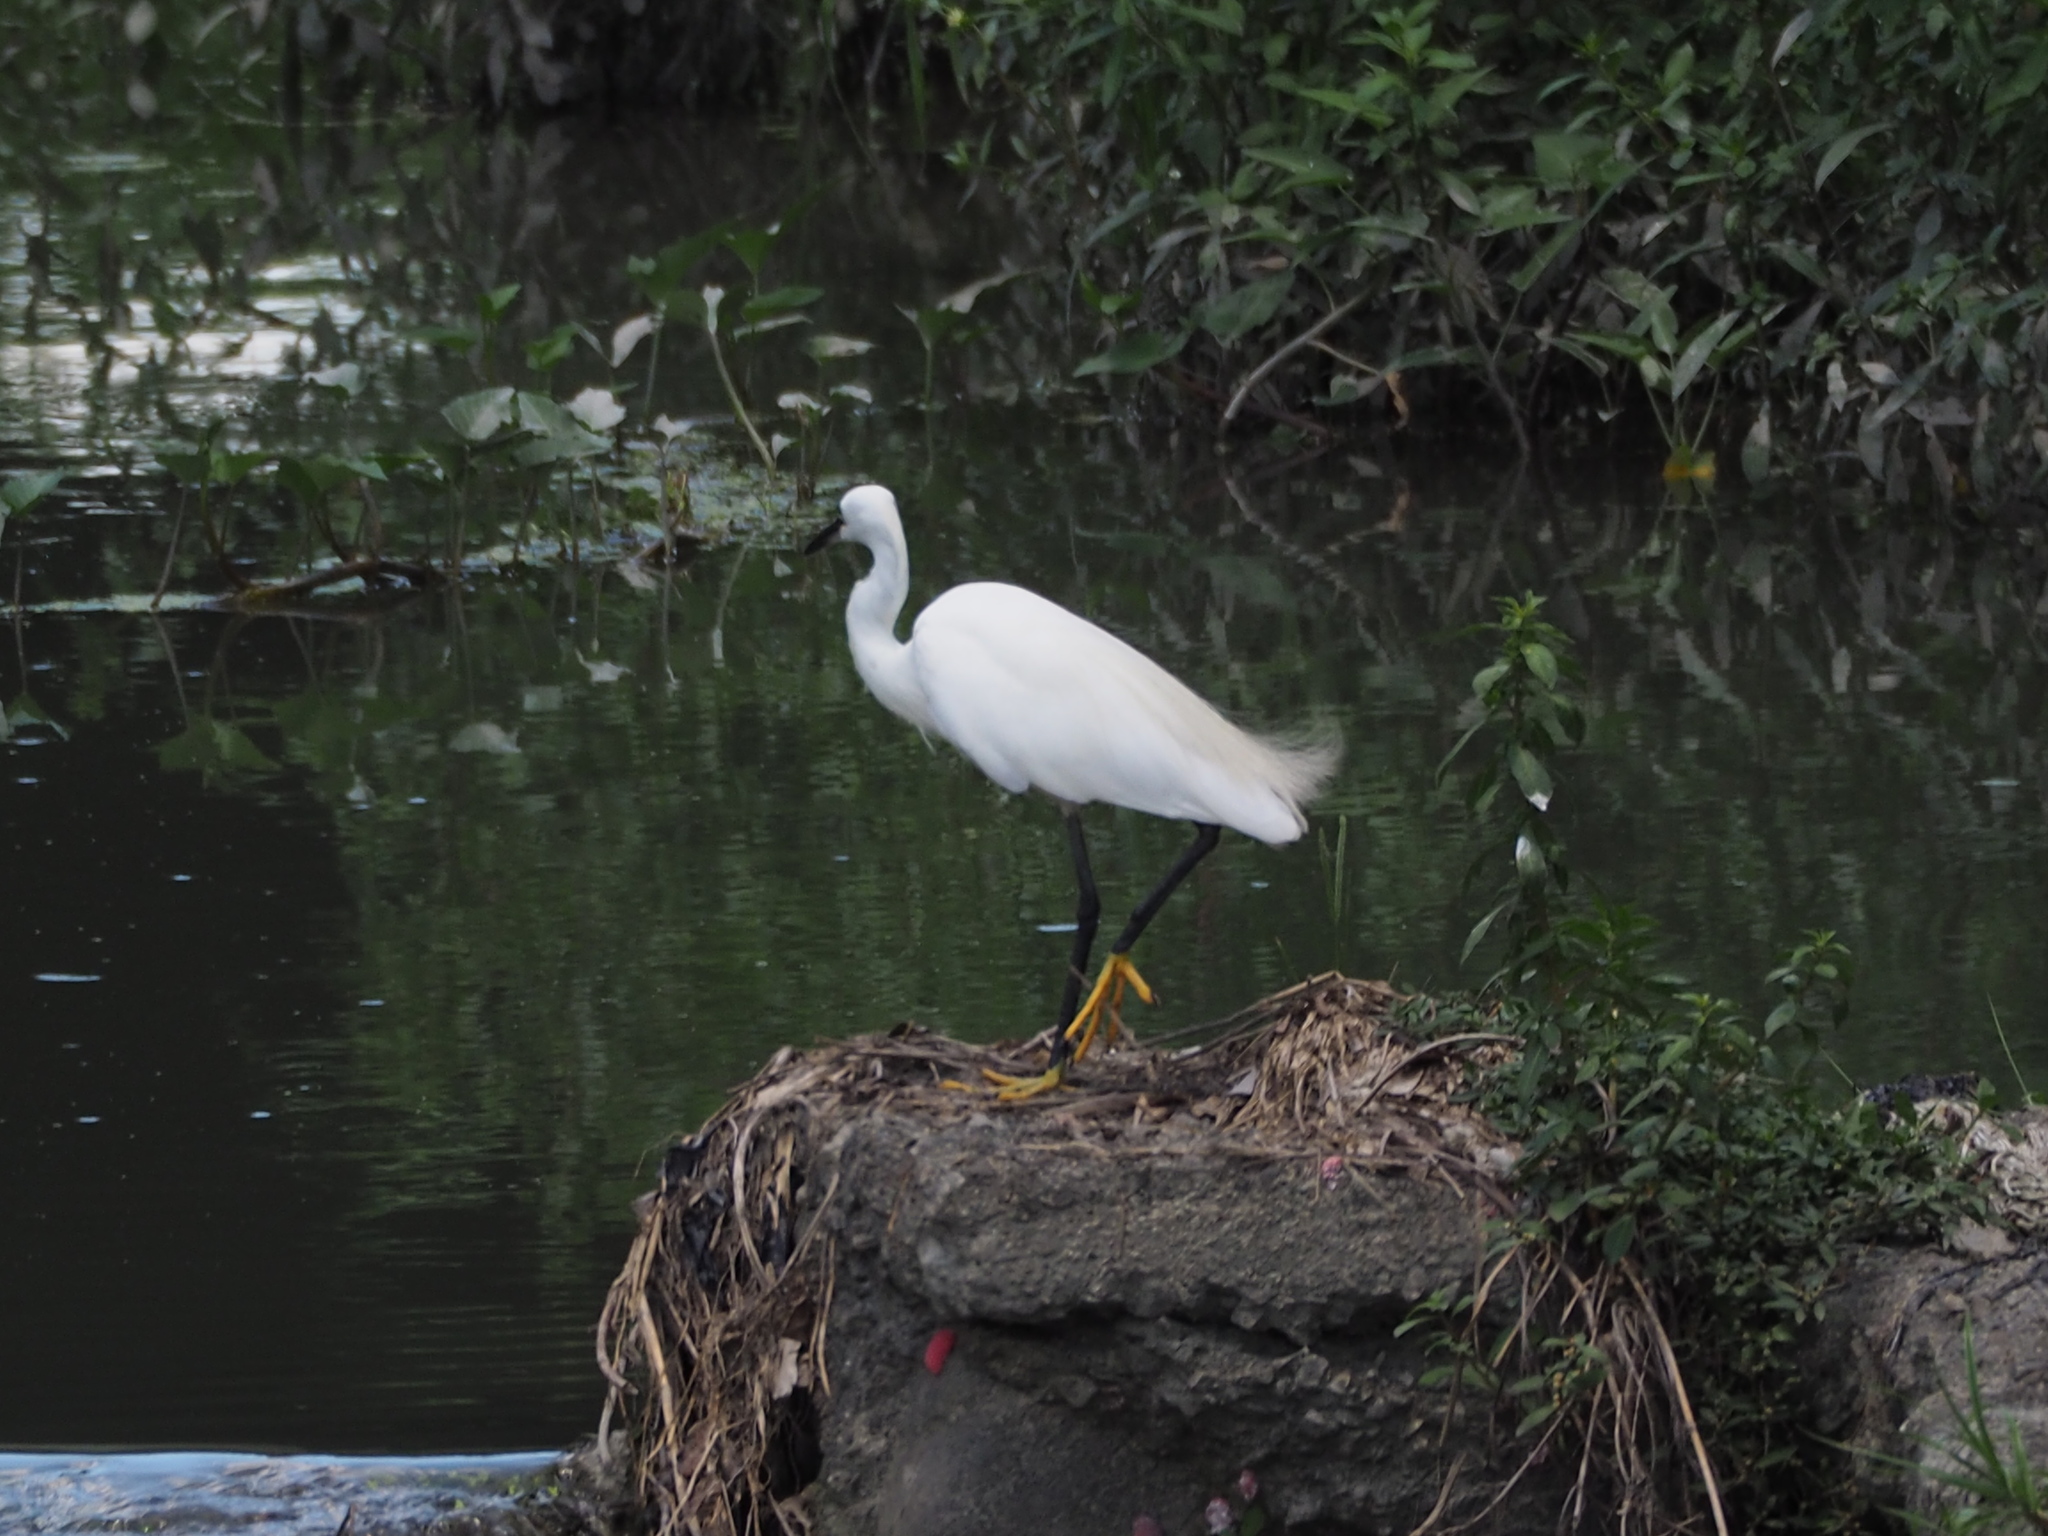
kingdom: Animalia
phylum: Chordata
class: Aves
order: Pelecaniformes
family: Ardeidae
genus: Egretta
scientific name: Egretta garzetta
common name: Little egret
